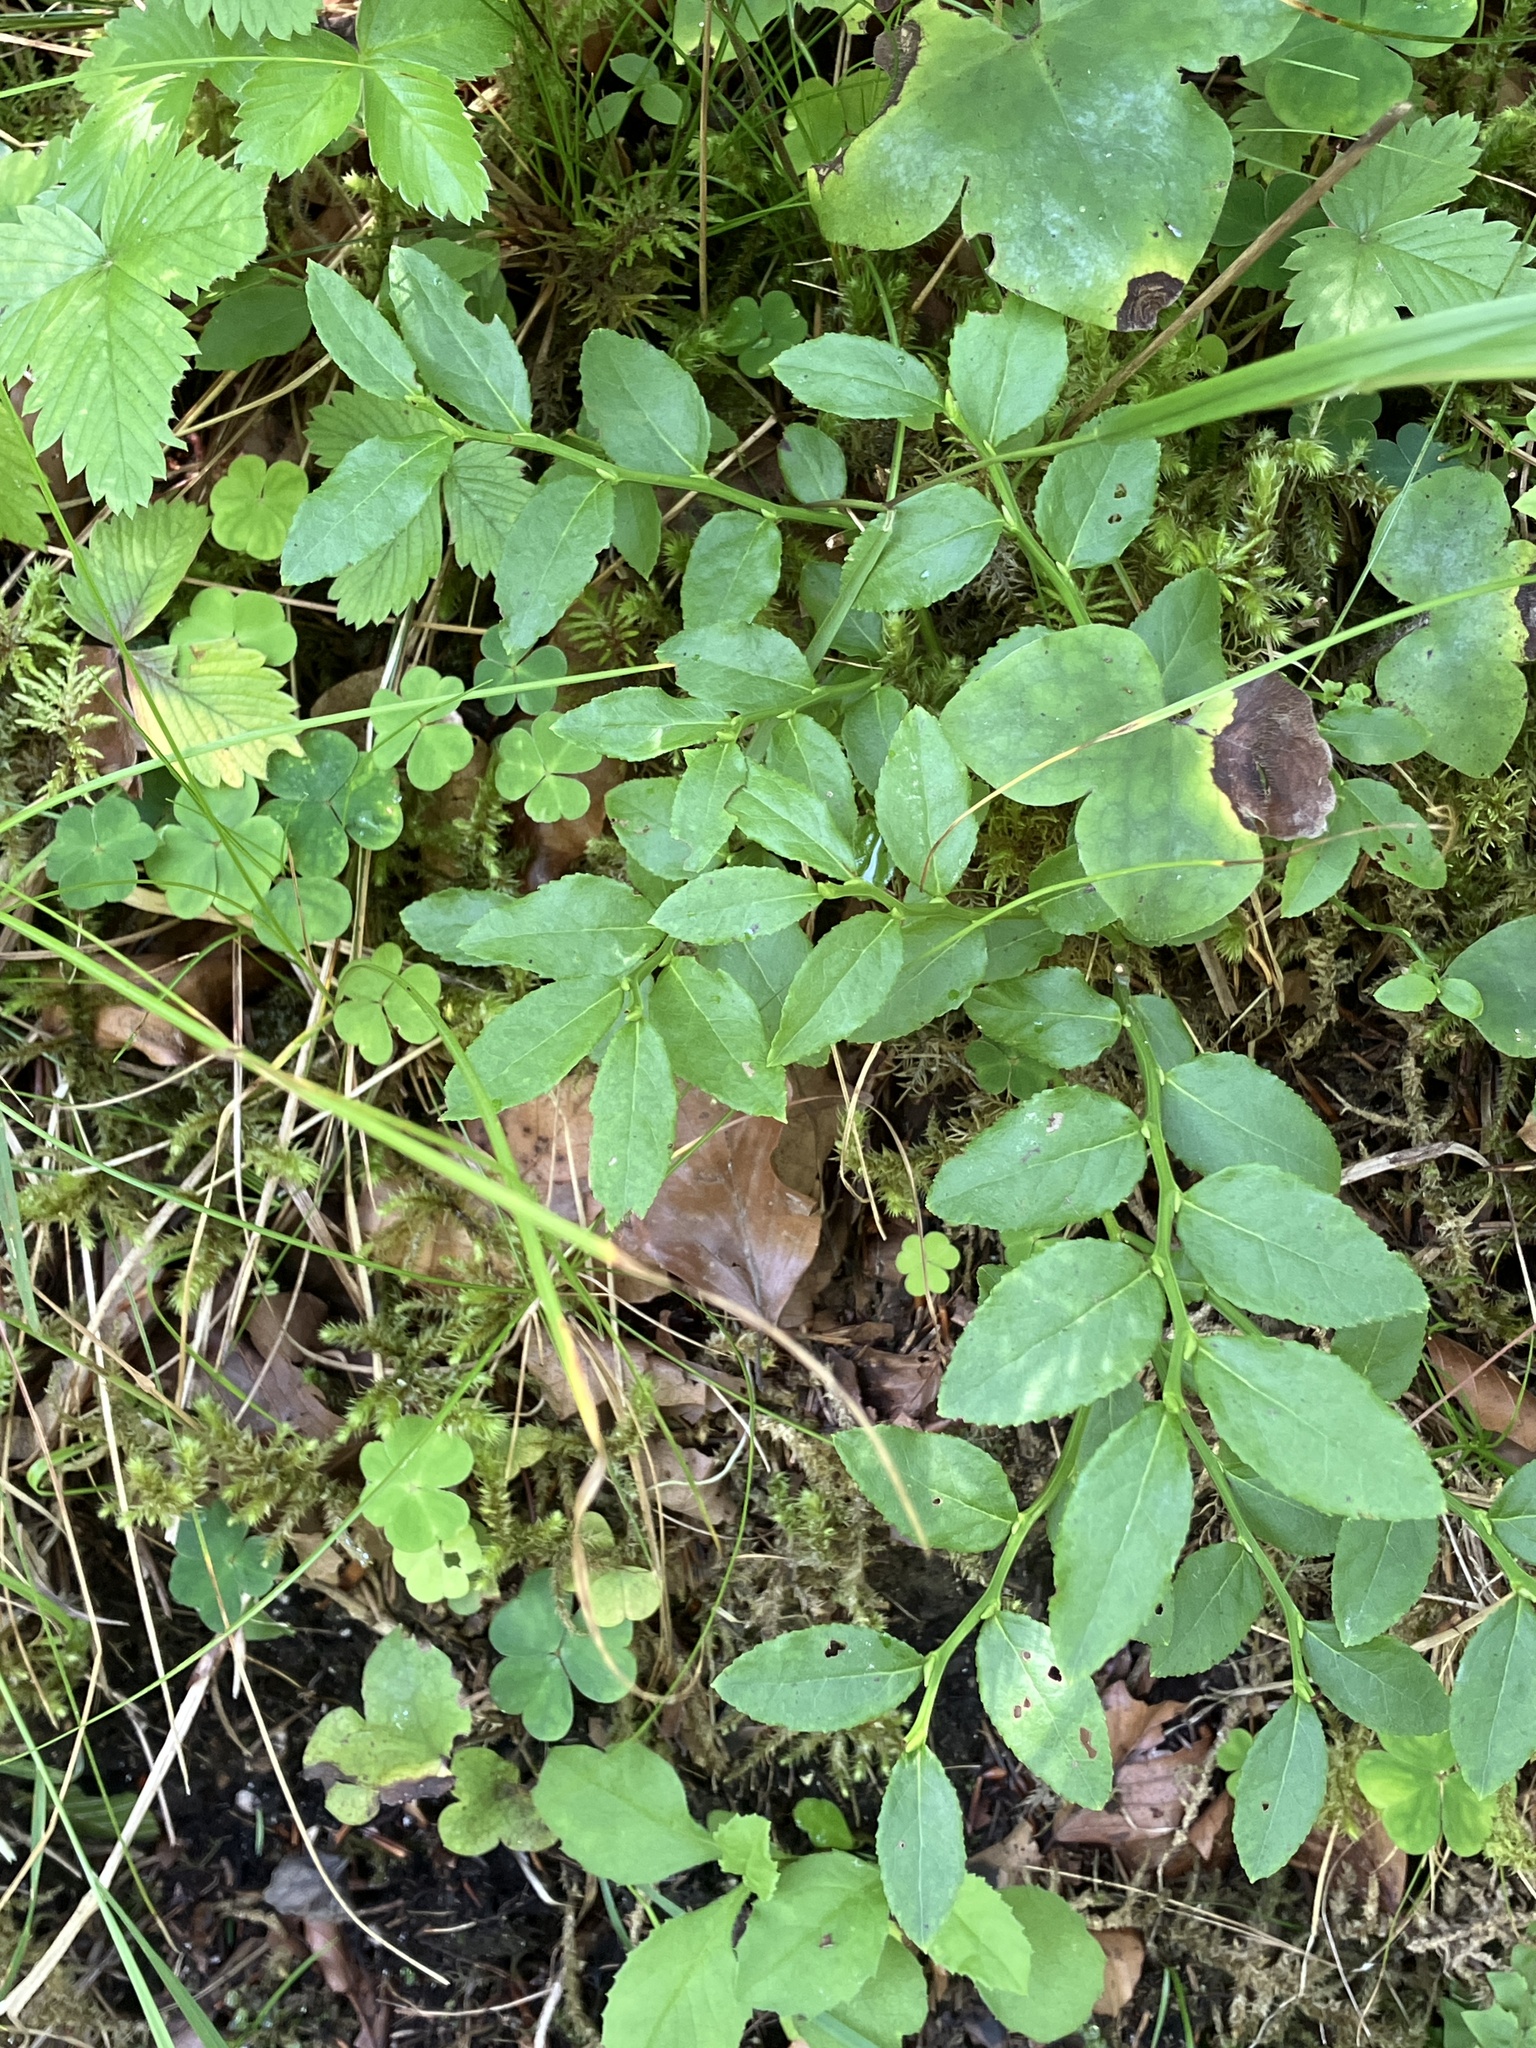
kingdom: Plantae
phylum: Tracheophyta
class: Magnoliopsida
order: Ericales
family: Ericaceae
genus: Vaccinium
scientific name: Vaccinium myrtillus
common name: Bilberry
